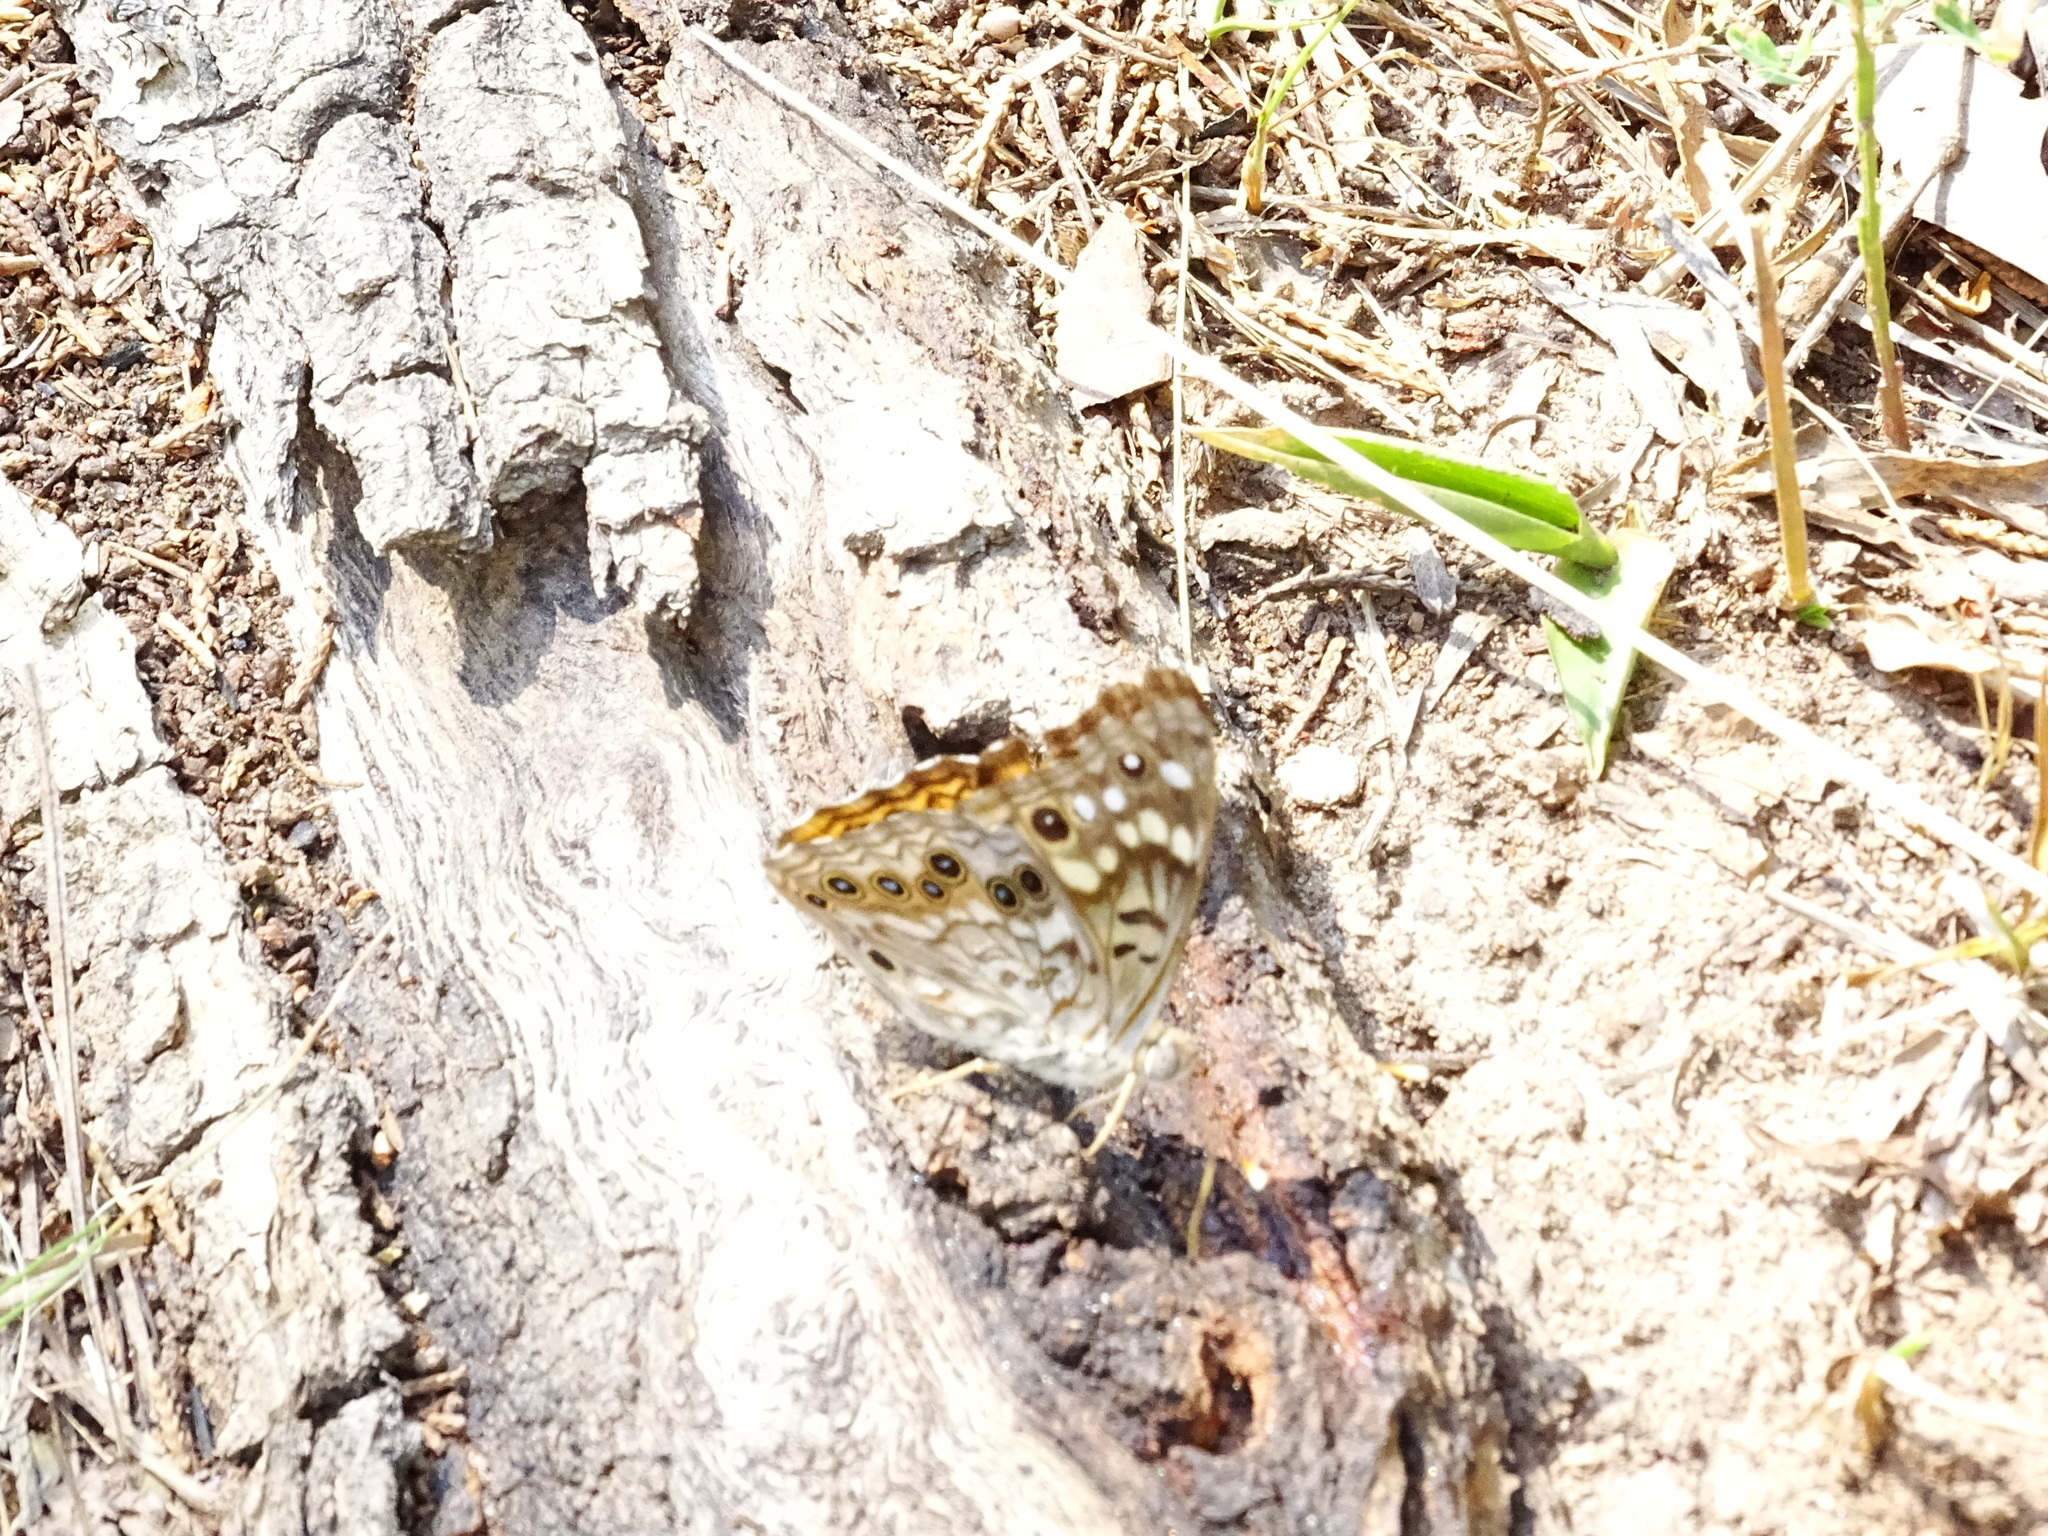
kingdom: Animalia
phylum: Arthropoda
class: Insecta
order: Lepidoptera
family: Nymphalidae
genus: Asterocampa
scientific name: Asterocampa celtis
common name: Hackberry emperor
